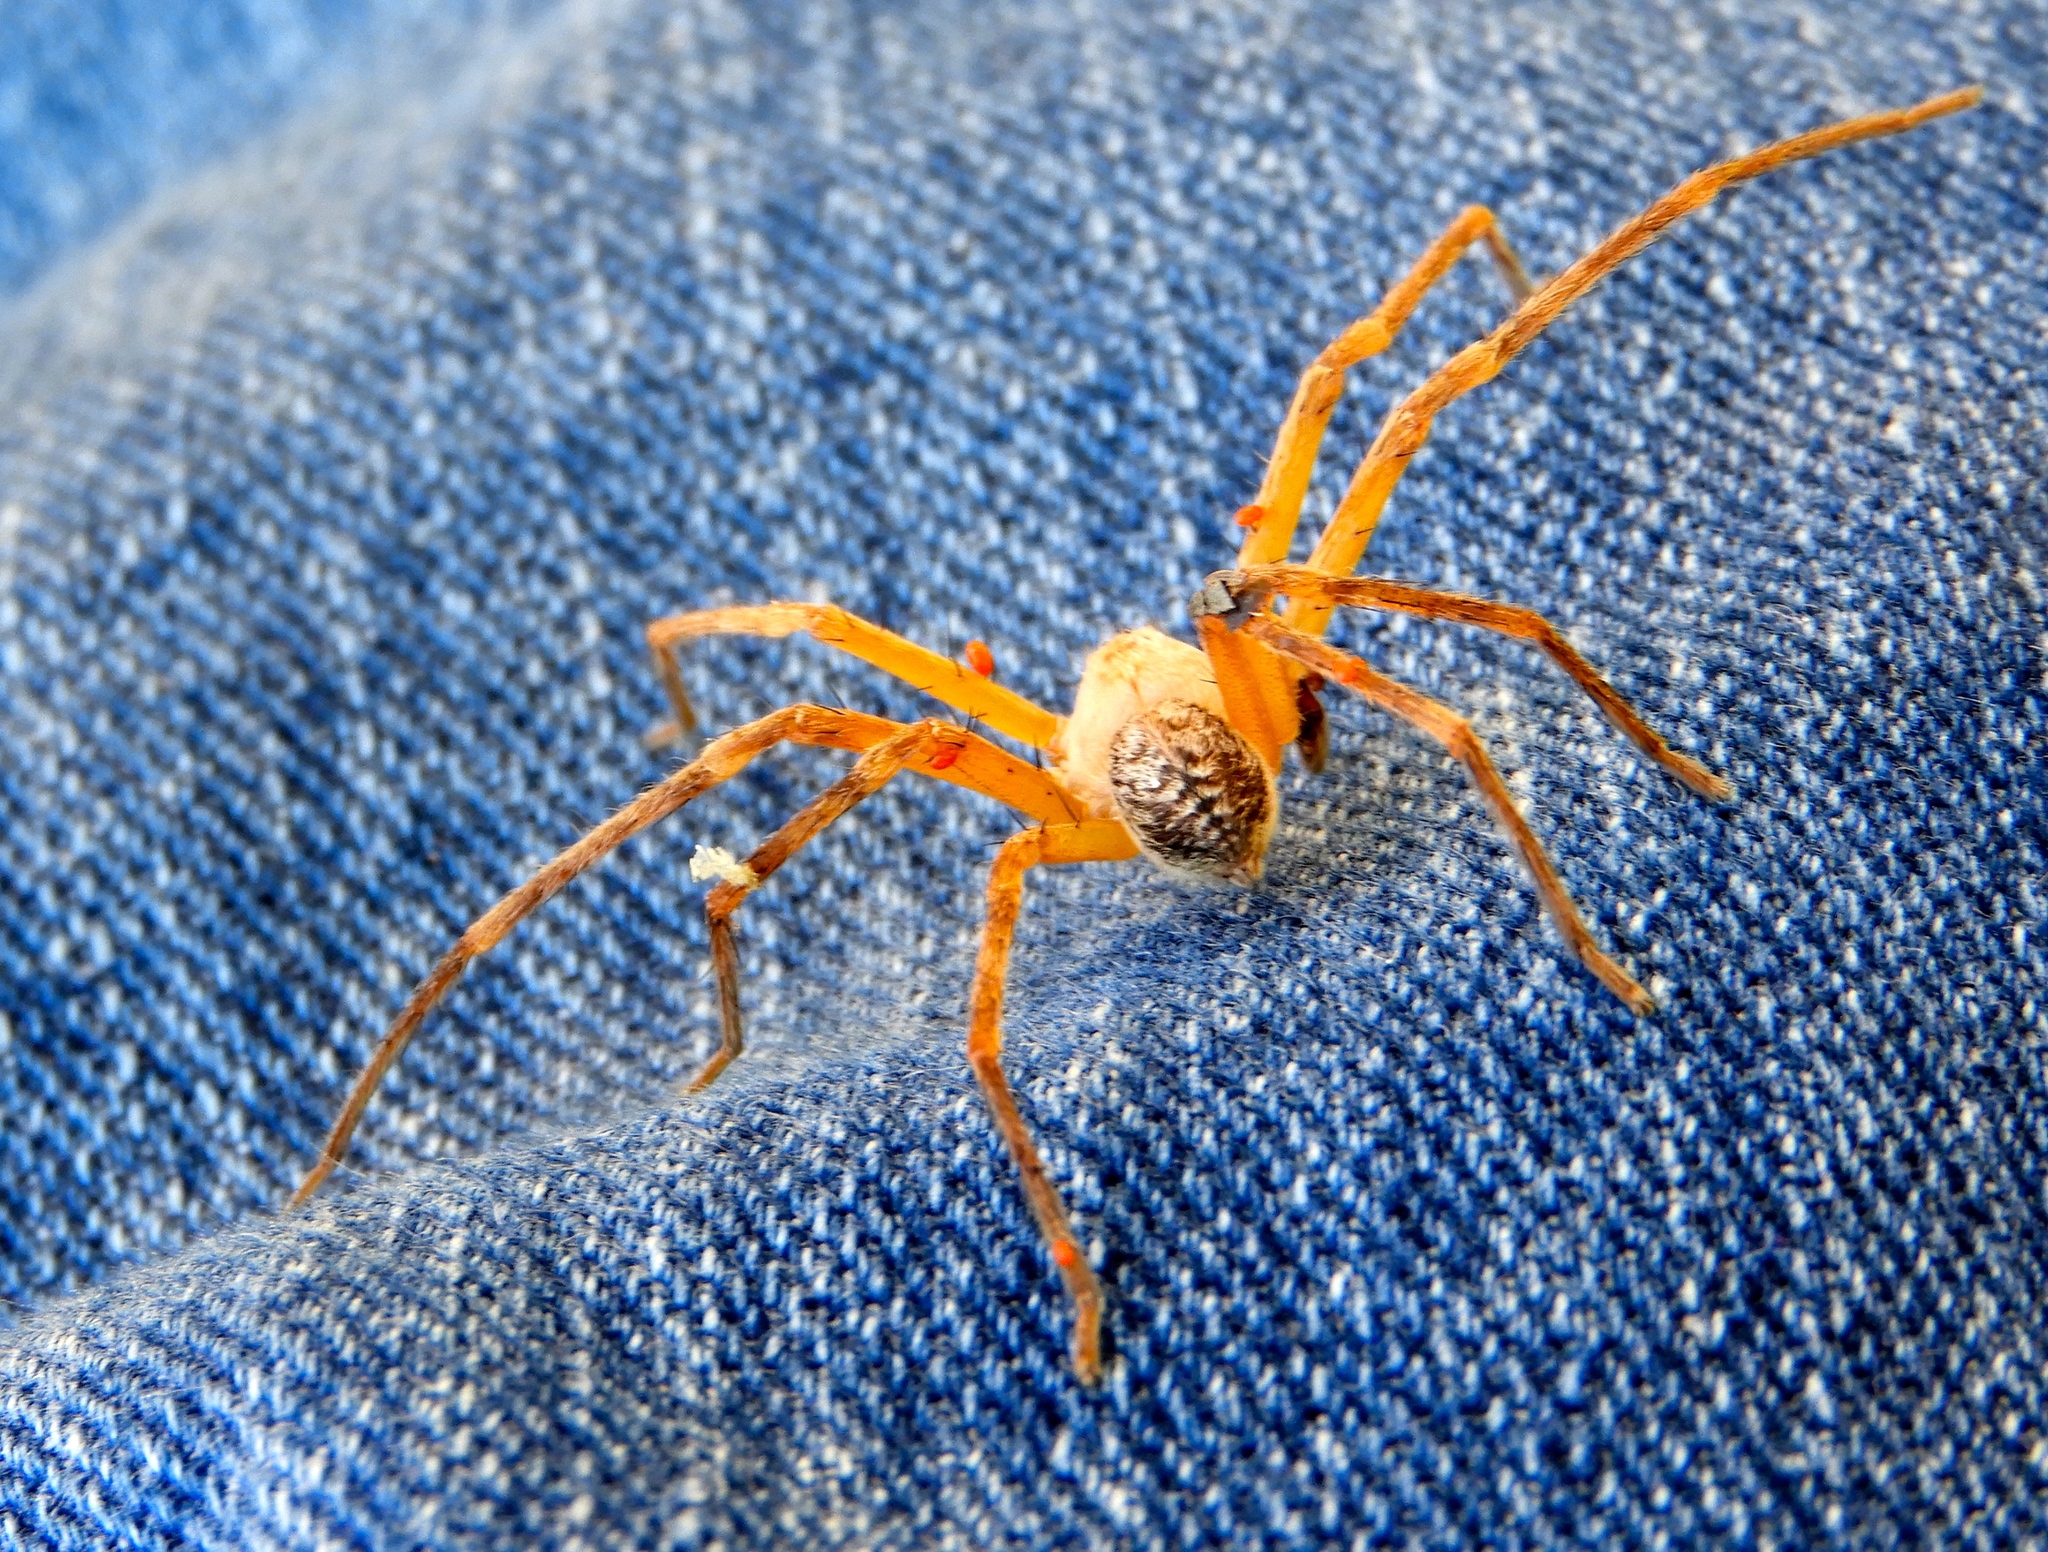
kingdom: Animalia
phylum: Arthropoda
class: Arachnida
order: Araneae
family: Sparassidae
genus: Curicaberis
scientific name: Curicaberis culiacan
